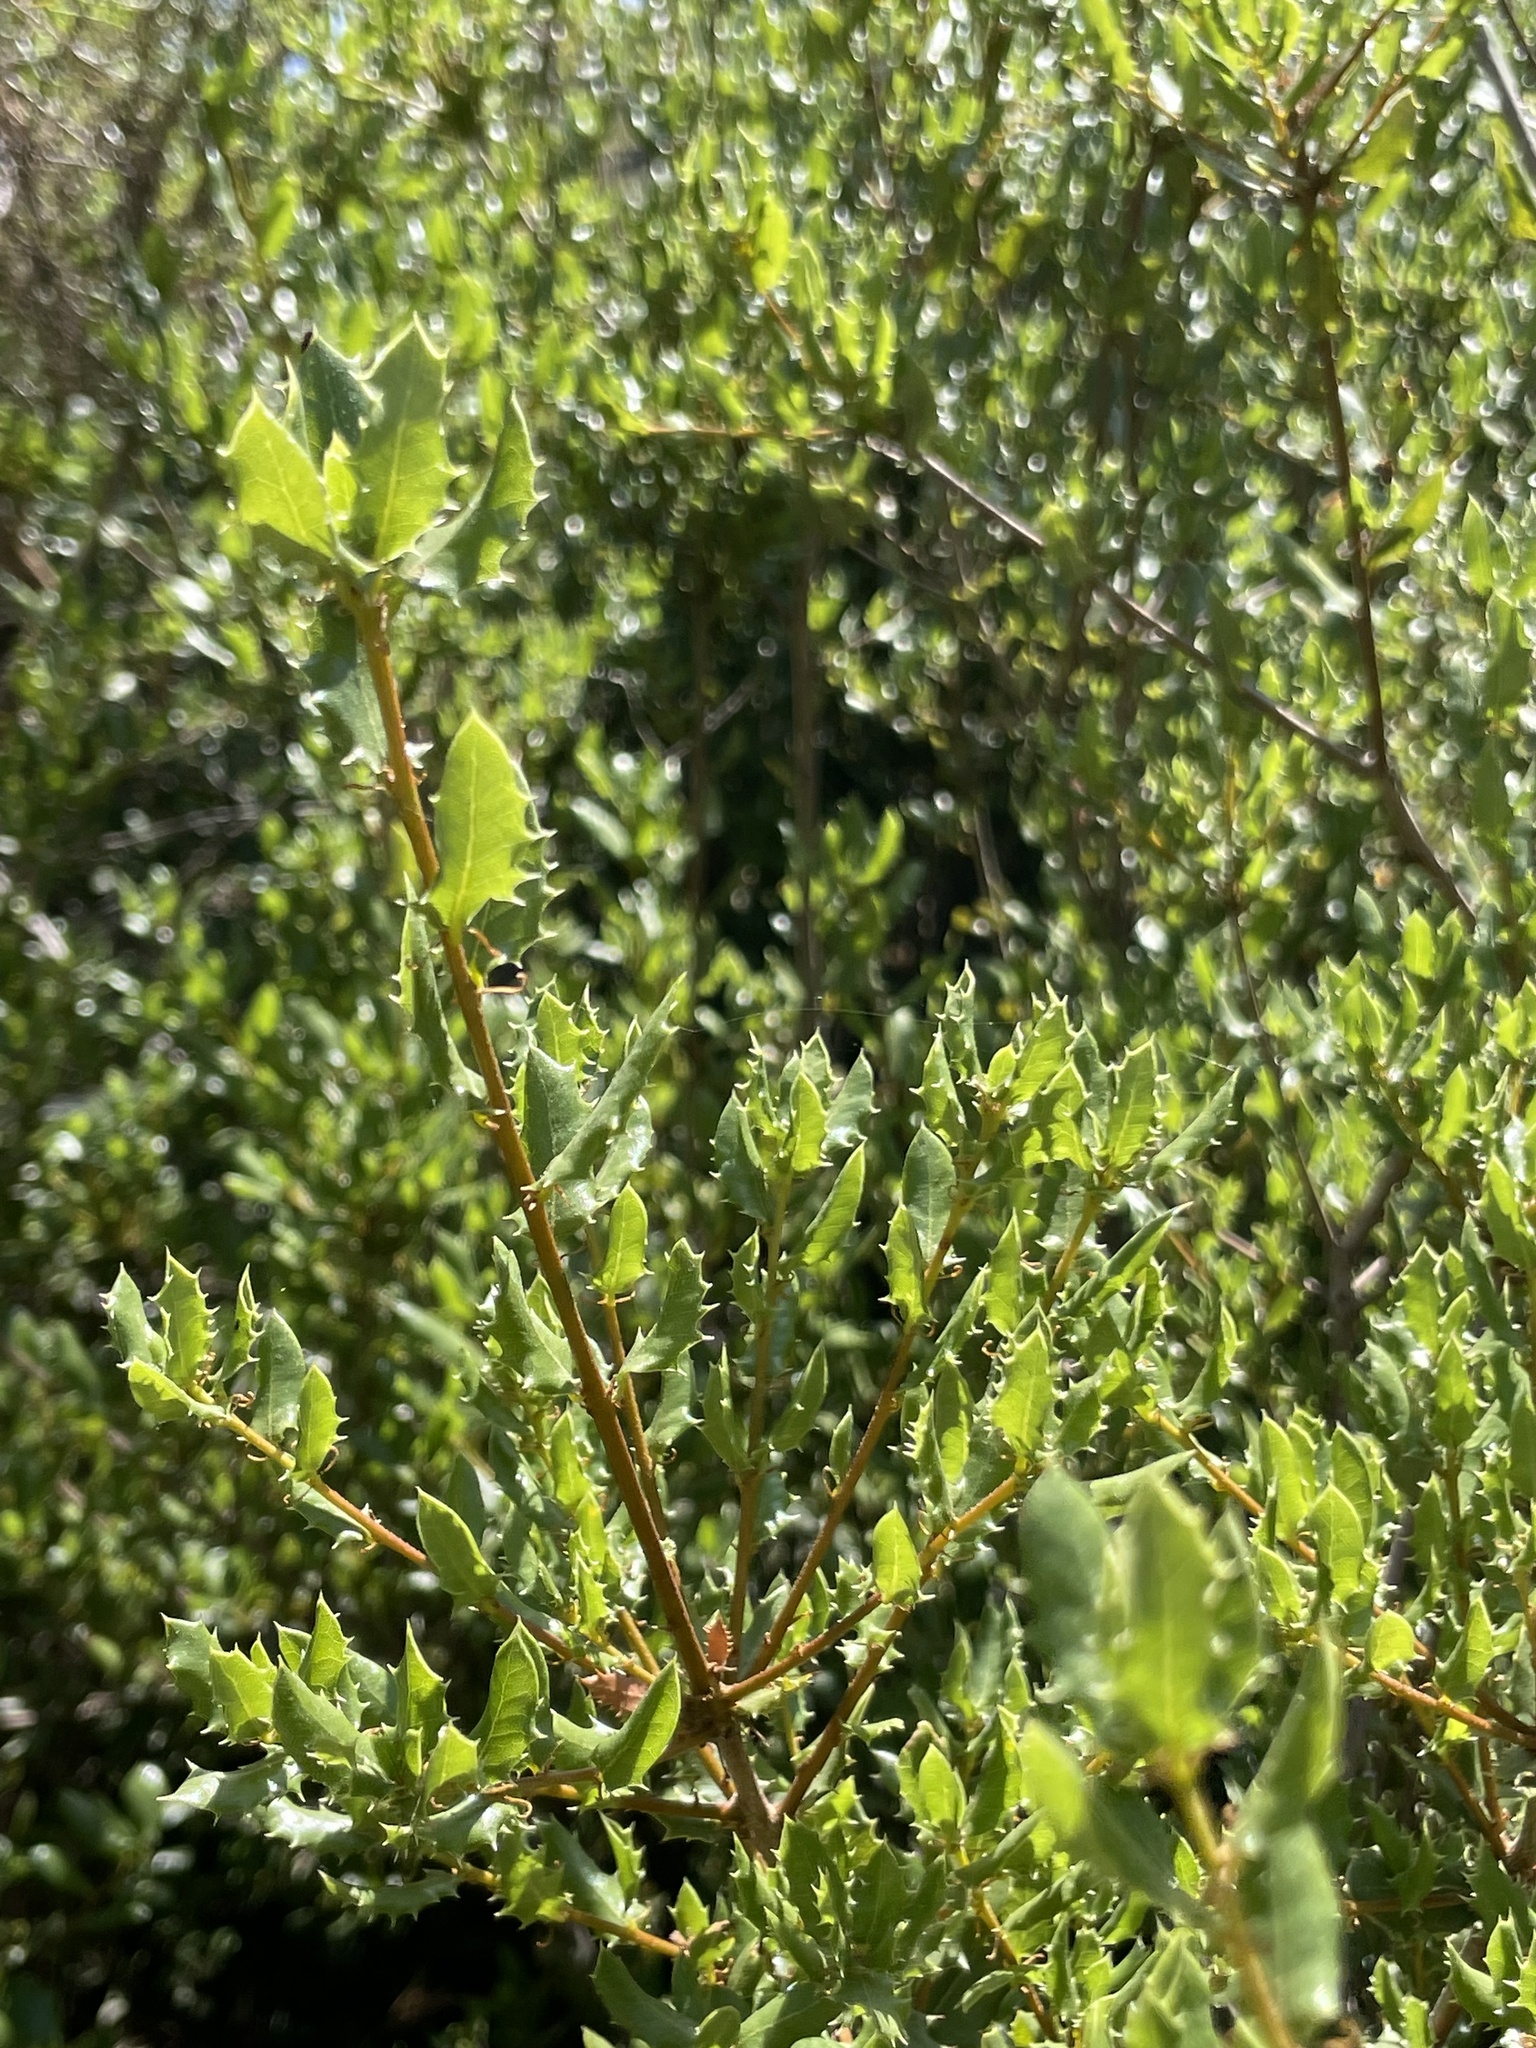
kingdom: Plantae
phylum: Tracheophyta
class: Magnoliopsida
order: Fagales
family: Fagaceae
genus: Quercus
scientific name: Quercus cedrosensis
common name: Cedros island oak
